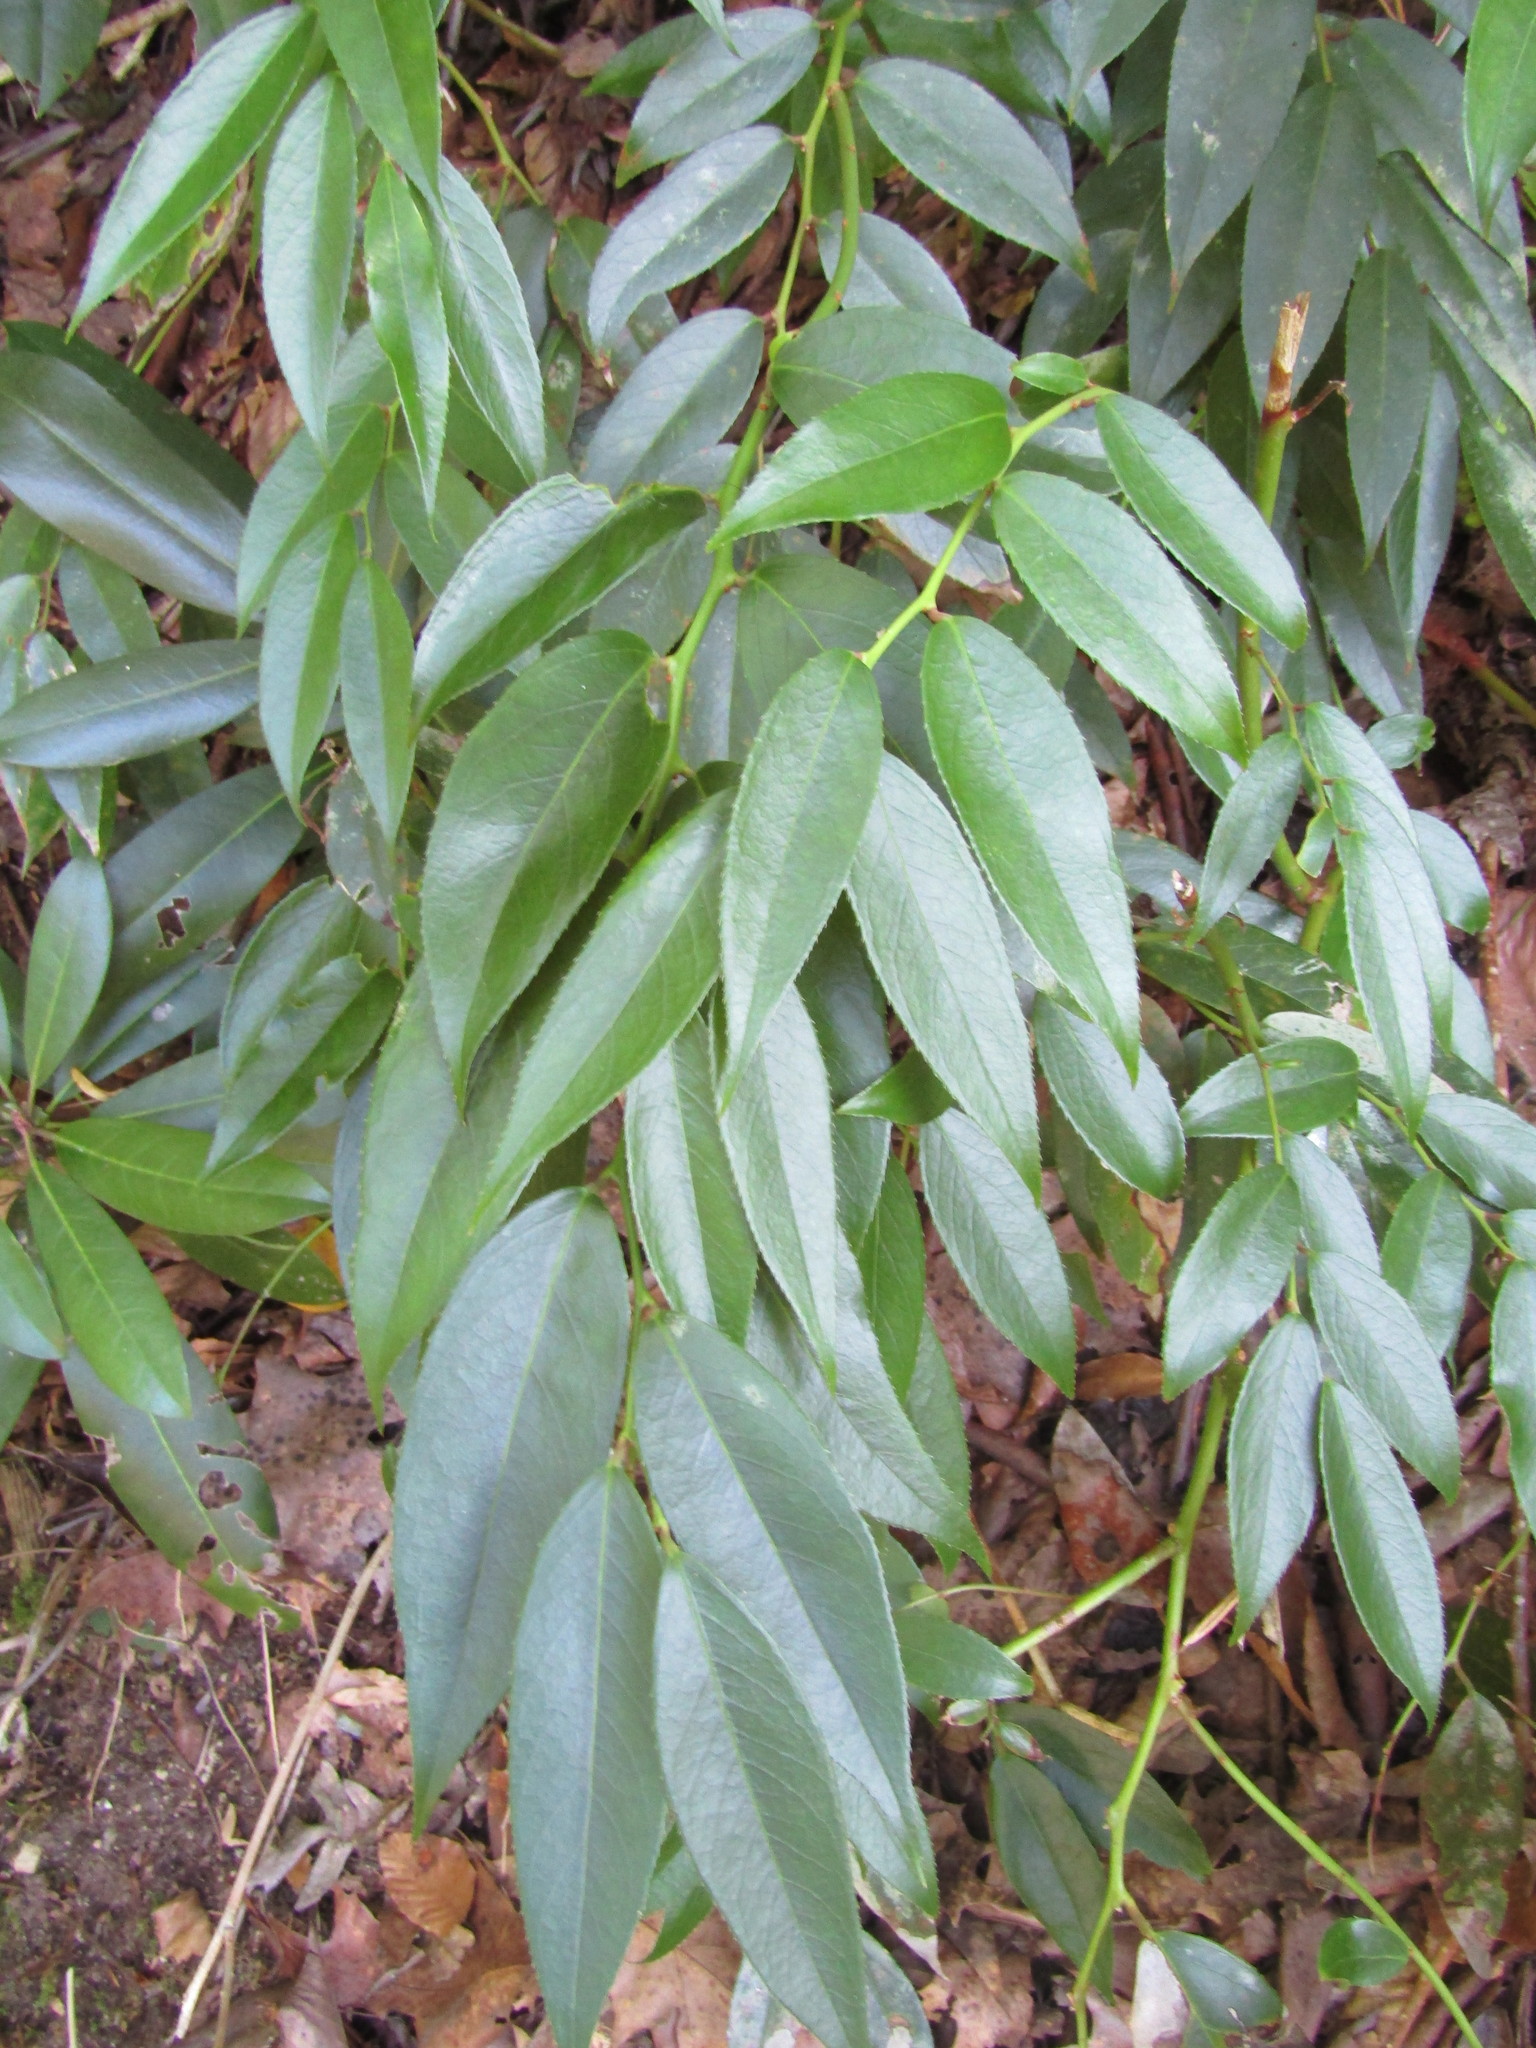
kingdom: Plantae
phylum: Tracheophyta
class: Magnoliopsida
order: Ericales
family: Ericaceae
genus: Leucothoe
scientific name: Leucothoe fontanesiana
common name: Fetterbush
